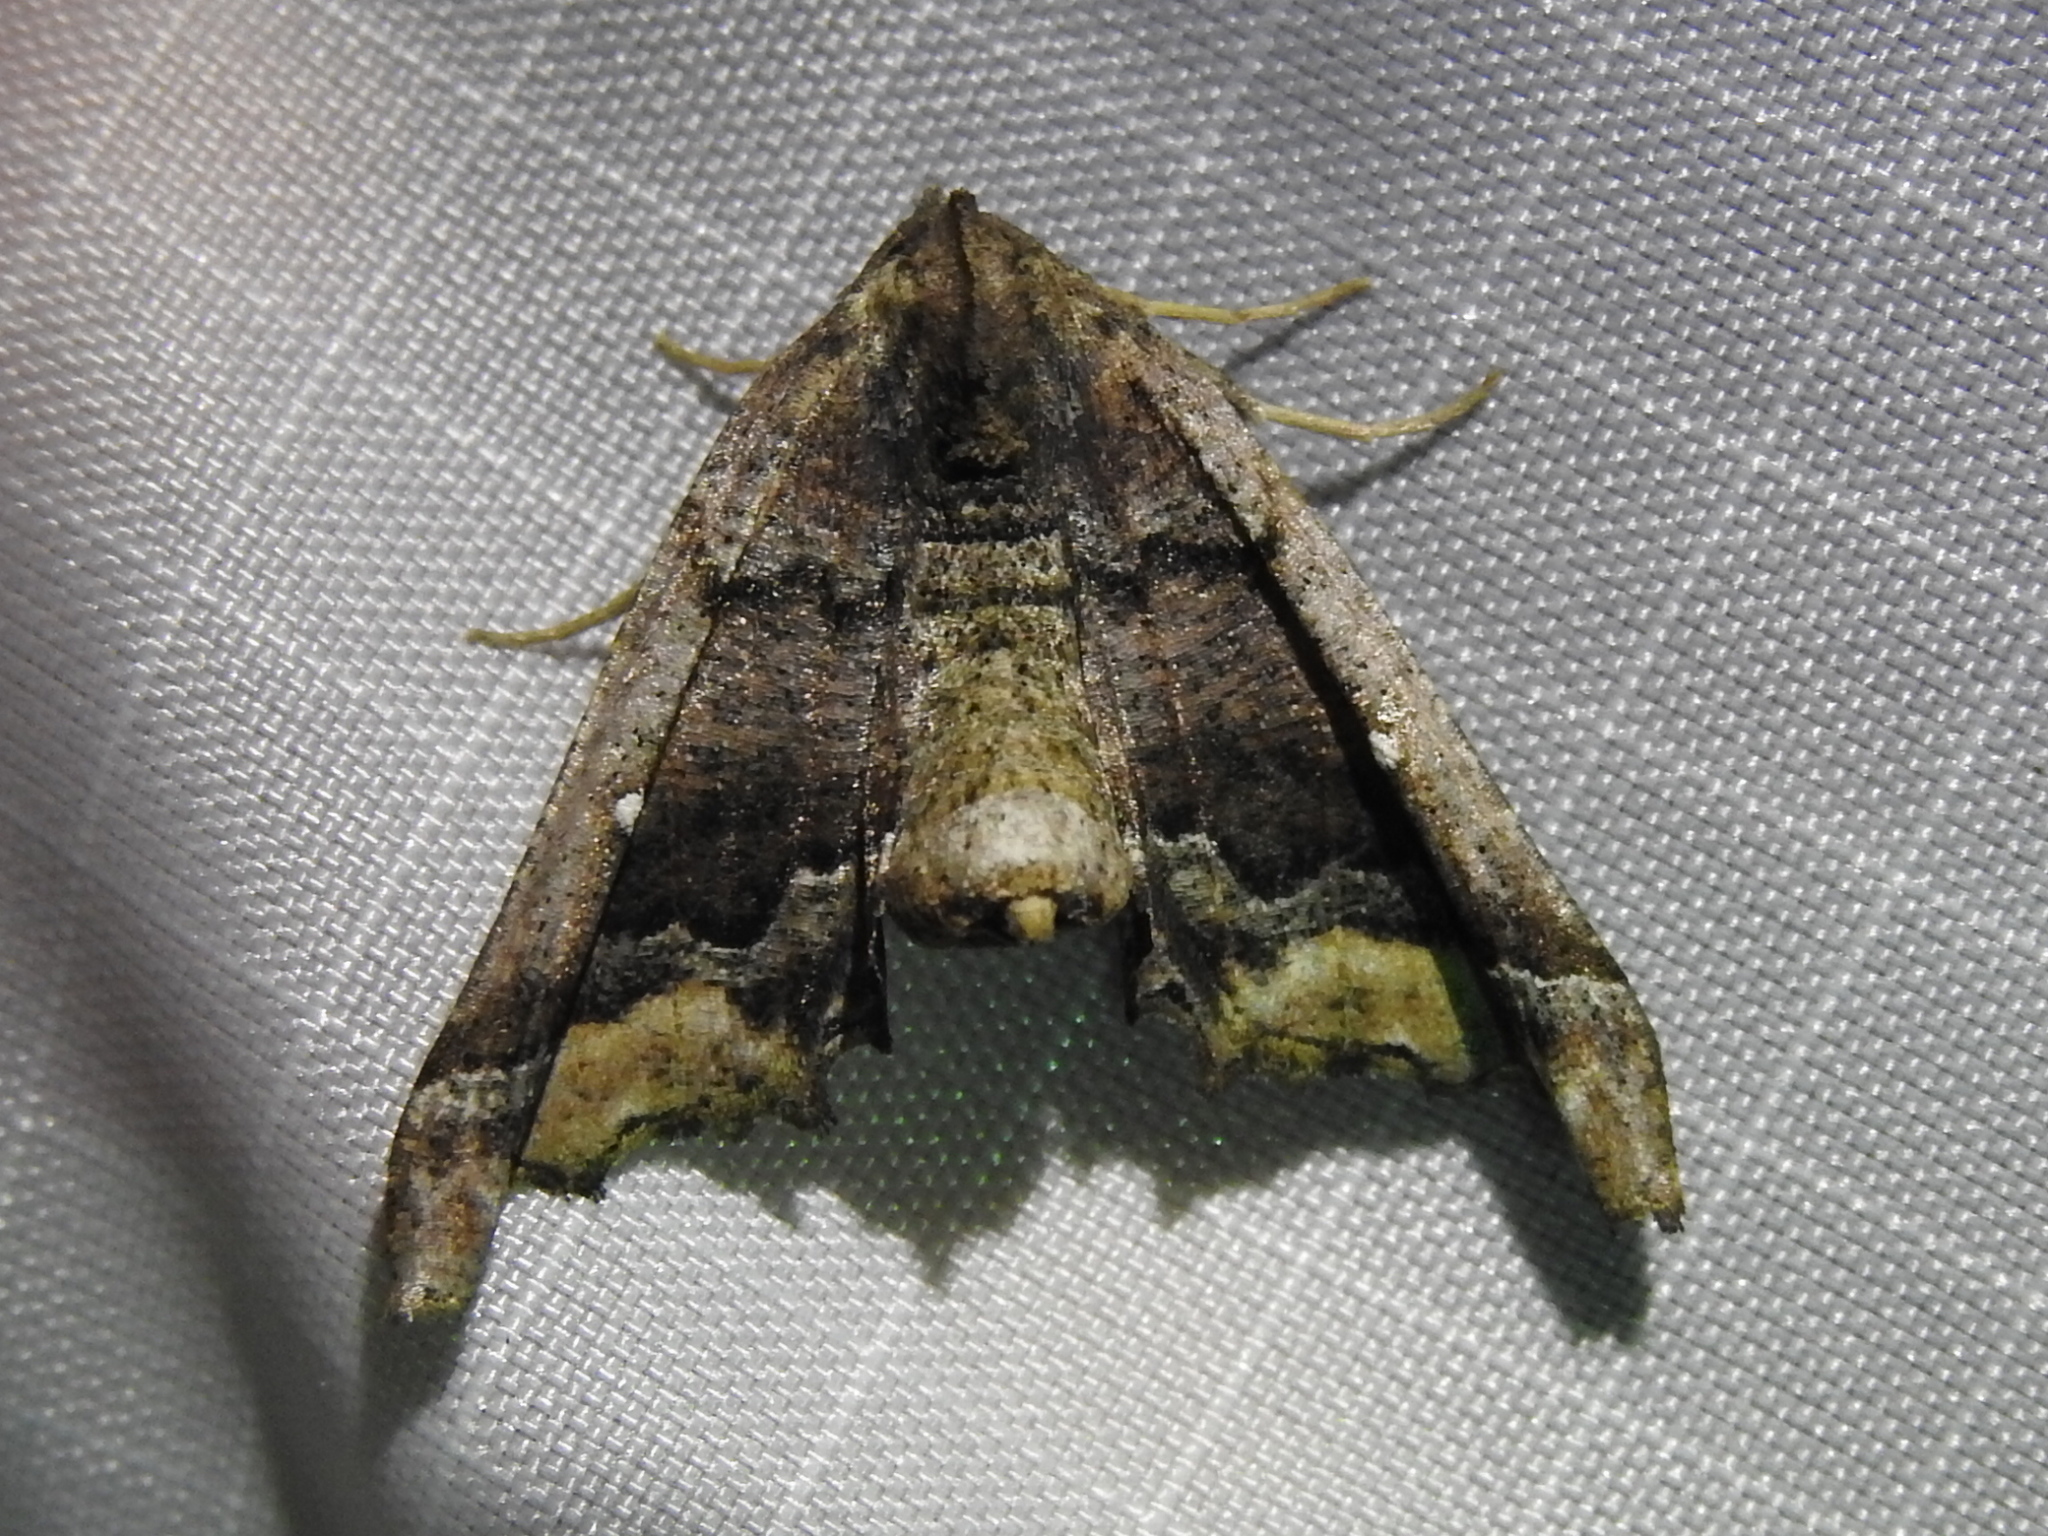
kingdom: Animalia
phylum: Arthropoda
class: Insecta
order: Lepidoptera
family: Geometridae
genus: Pero
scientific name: Pero meskaria
